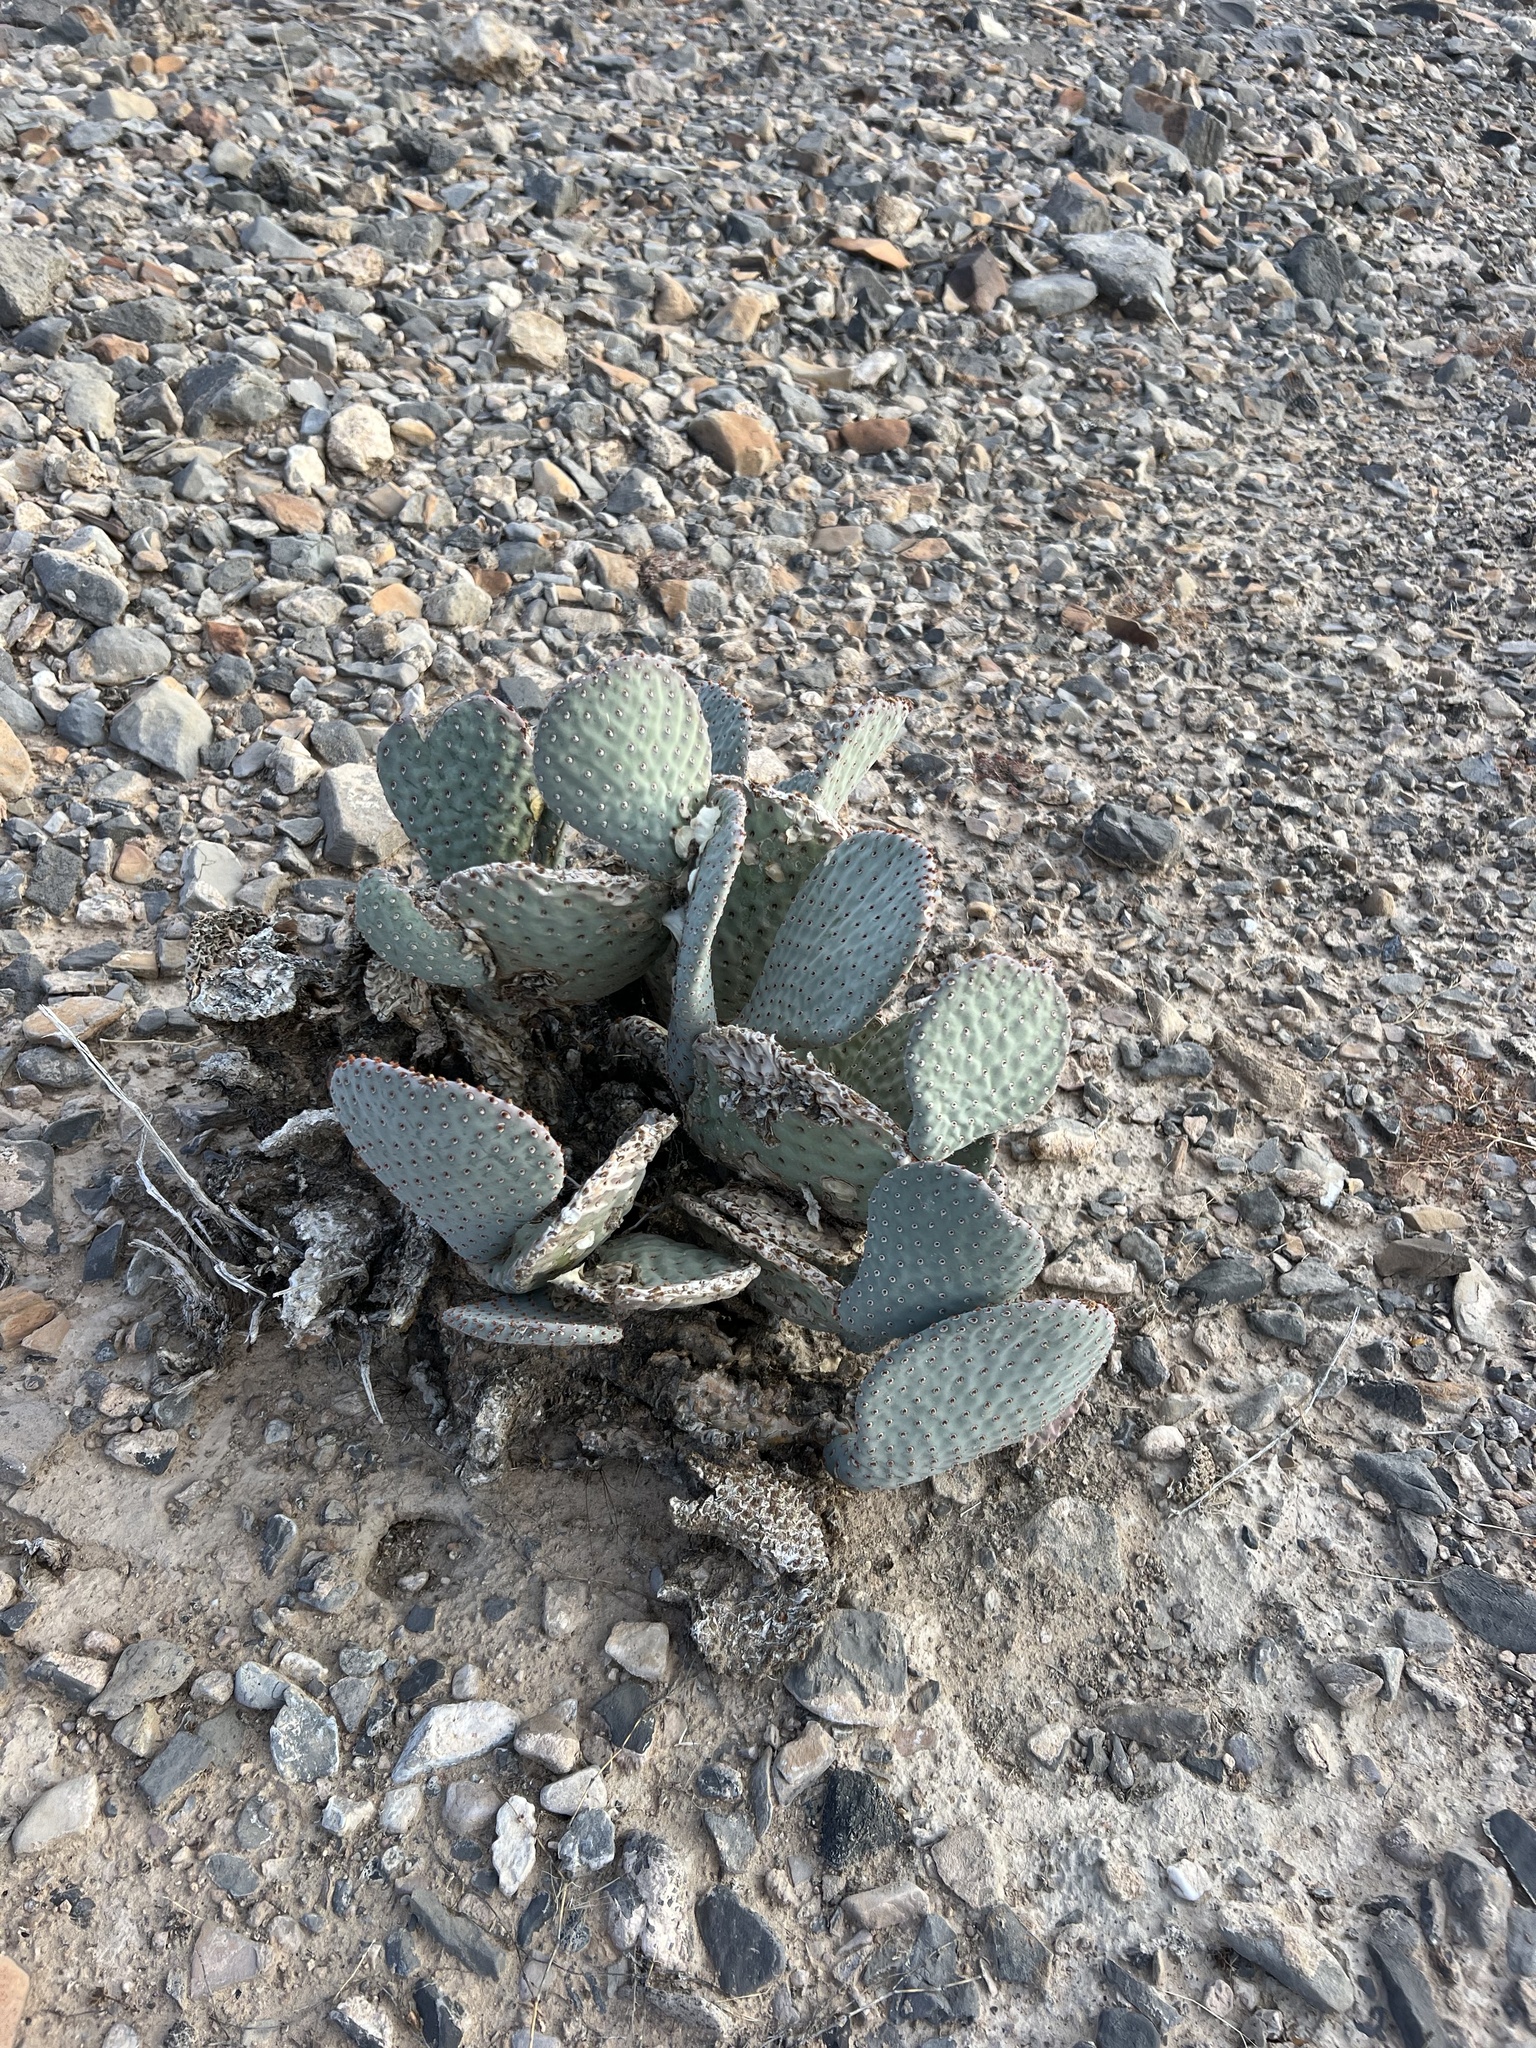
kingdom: Plantae
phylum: Tracheophyta
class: Magnoliopsida
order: Caryophyllales
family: Cactaceae
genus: Opuntia
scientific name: Opuntia basilaris
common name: Beavertail prickly-pear
